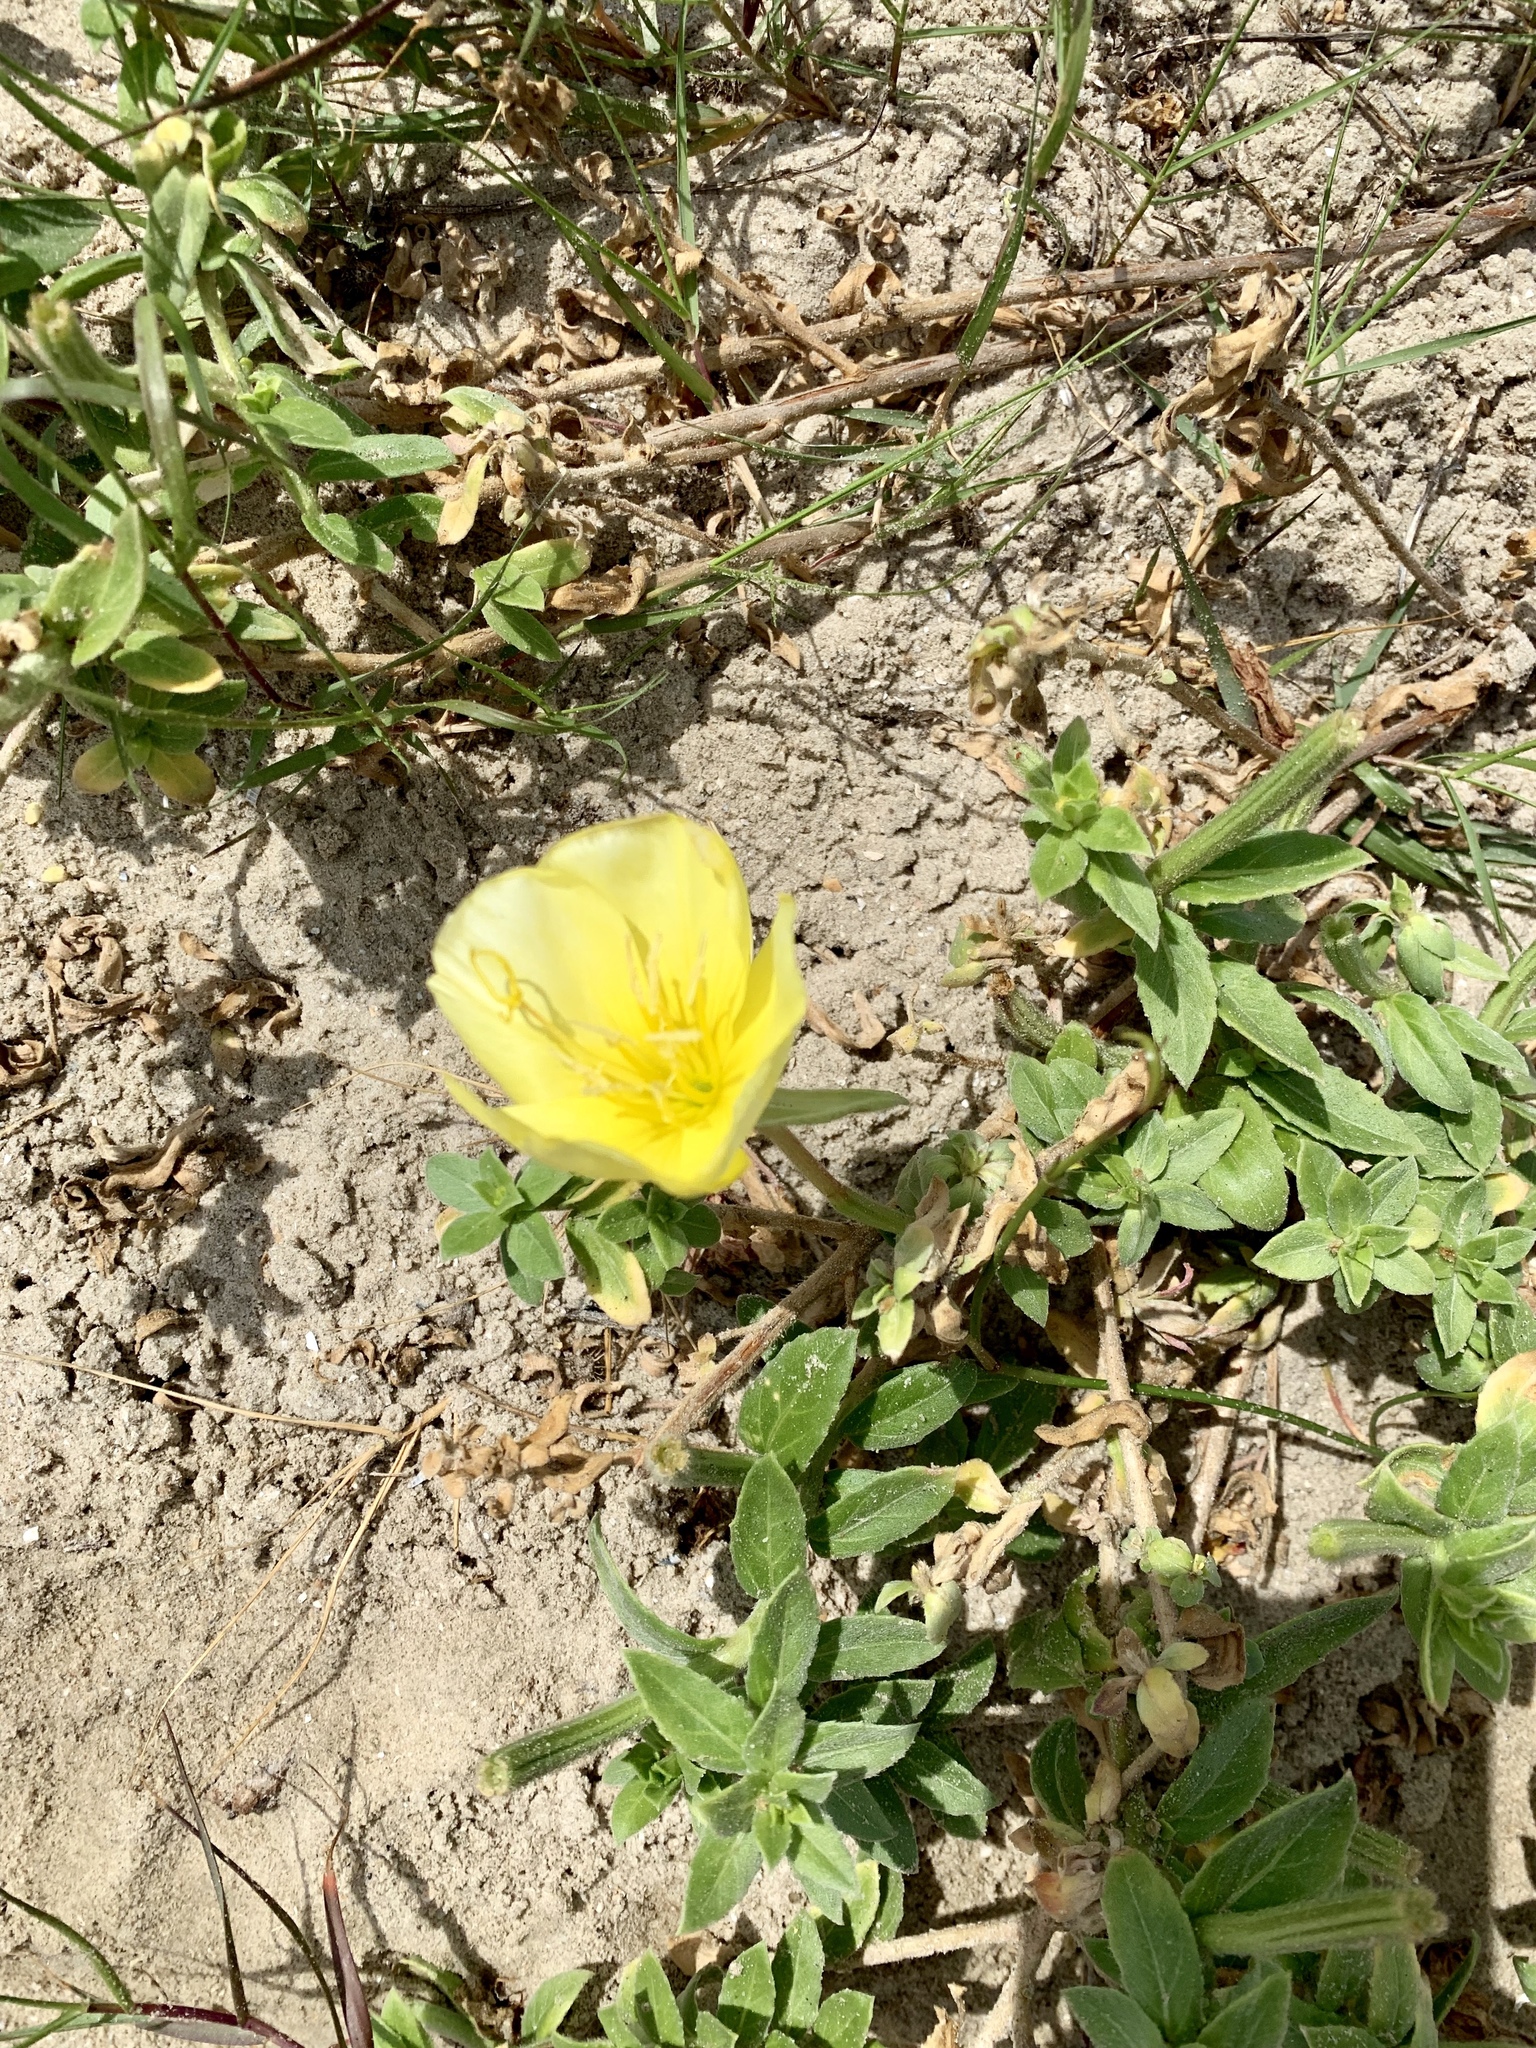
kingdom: Plantae
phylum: Tracheophyta
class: Magnoliopsida
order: Myrtales
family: Onagraceae
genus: Oenothera
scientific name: Oenothera drummondii
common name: Beach evening-primrose
